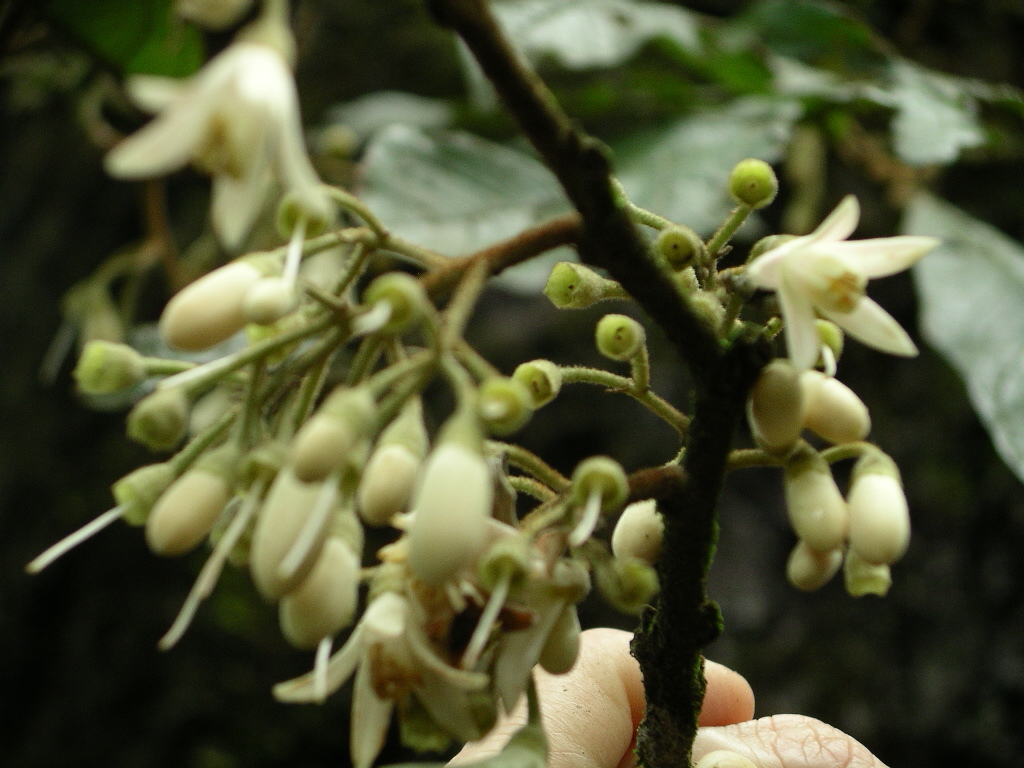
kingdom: Plantae
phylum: Tracheophyta
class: Magnoliopsida
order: Ericales
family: Styracaceae
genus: Styrax
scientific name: Styrax magnus
